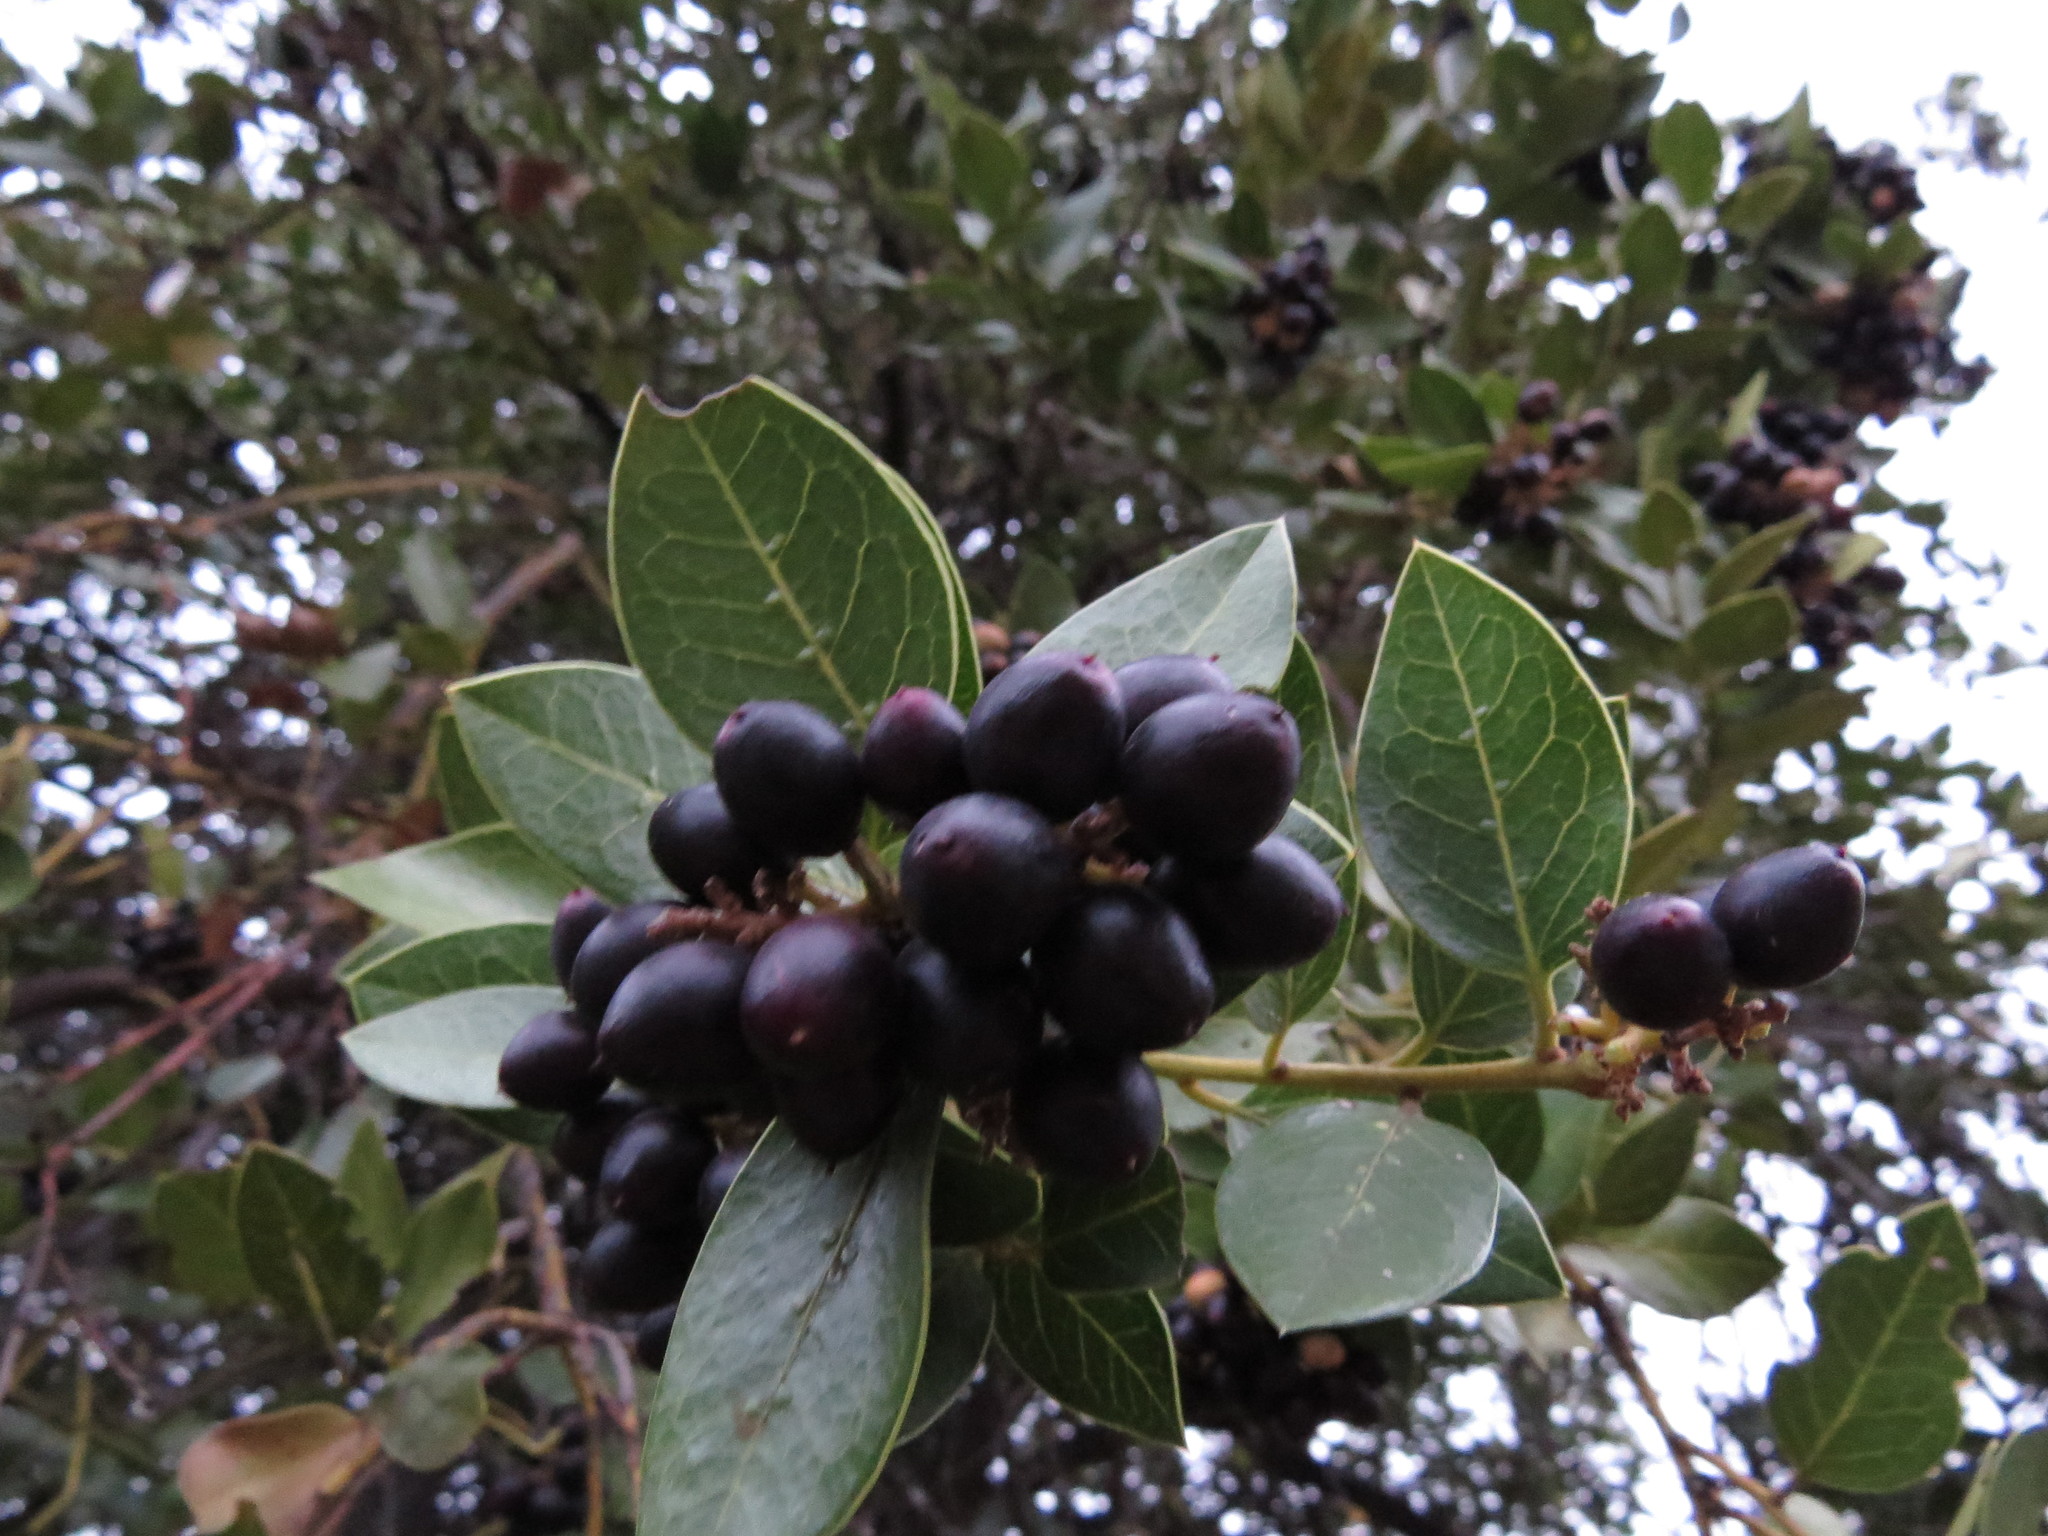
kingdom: Plantae
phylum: Tracheophyta
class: Magnoliopsida
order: Cardiopteridales
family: Cardiopteridaceae
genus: Citronella
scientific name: Citronella mucronata
